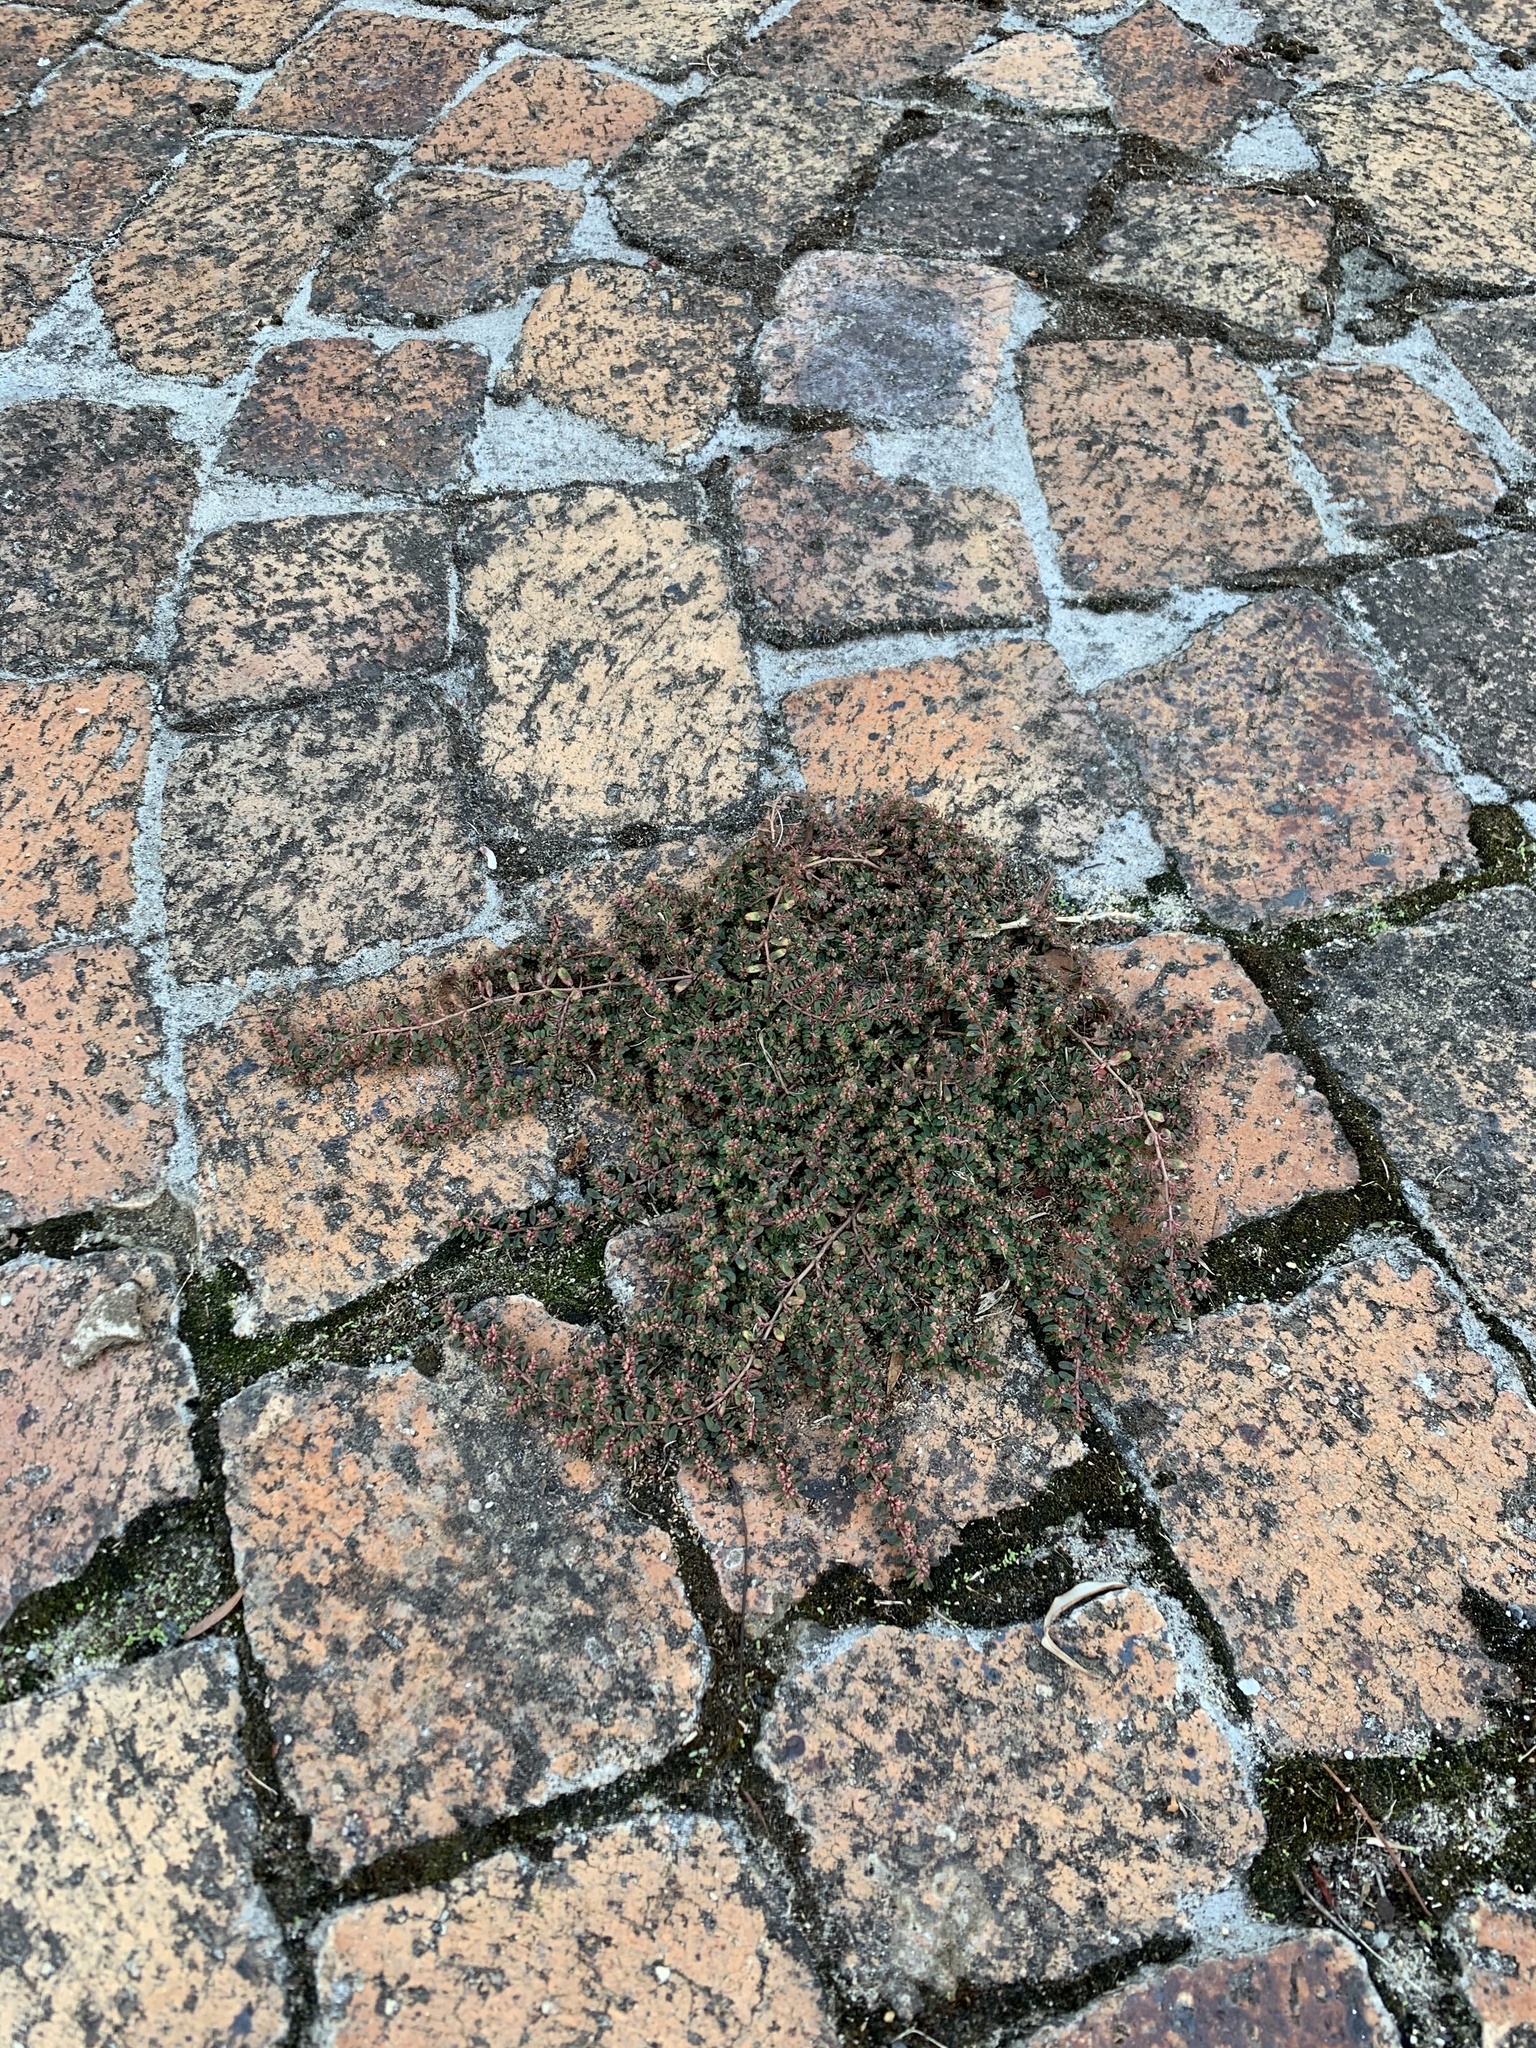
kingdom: Plantae
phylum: Tracheophyta
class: Magnoliopsida
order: Malpighiales
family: Euphorbiaceae
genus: Euphorbia
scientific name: Euphorbia maculata
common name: Spotted spurge
